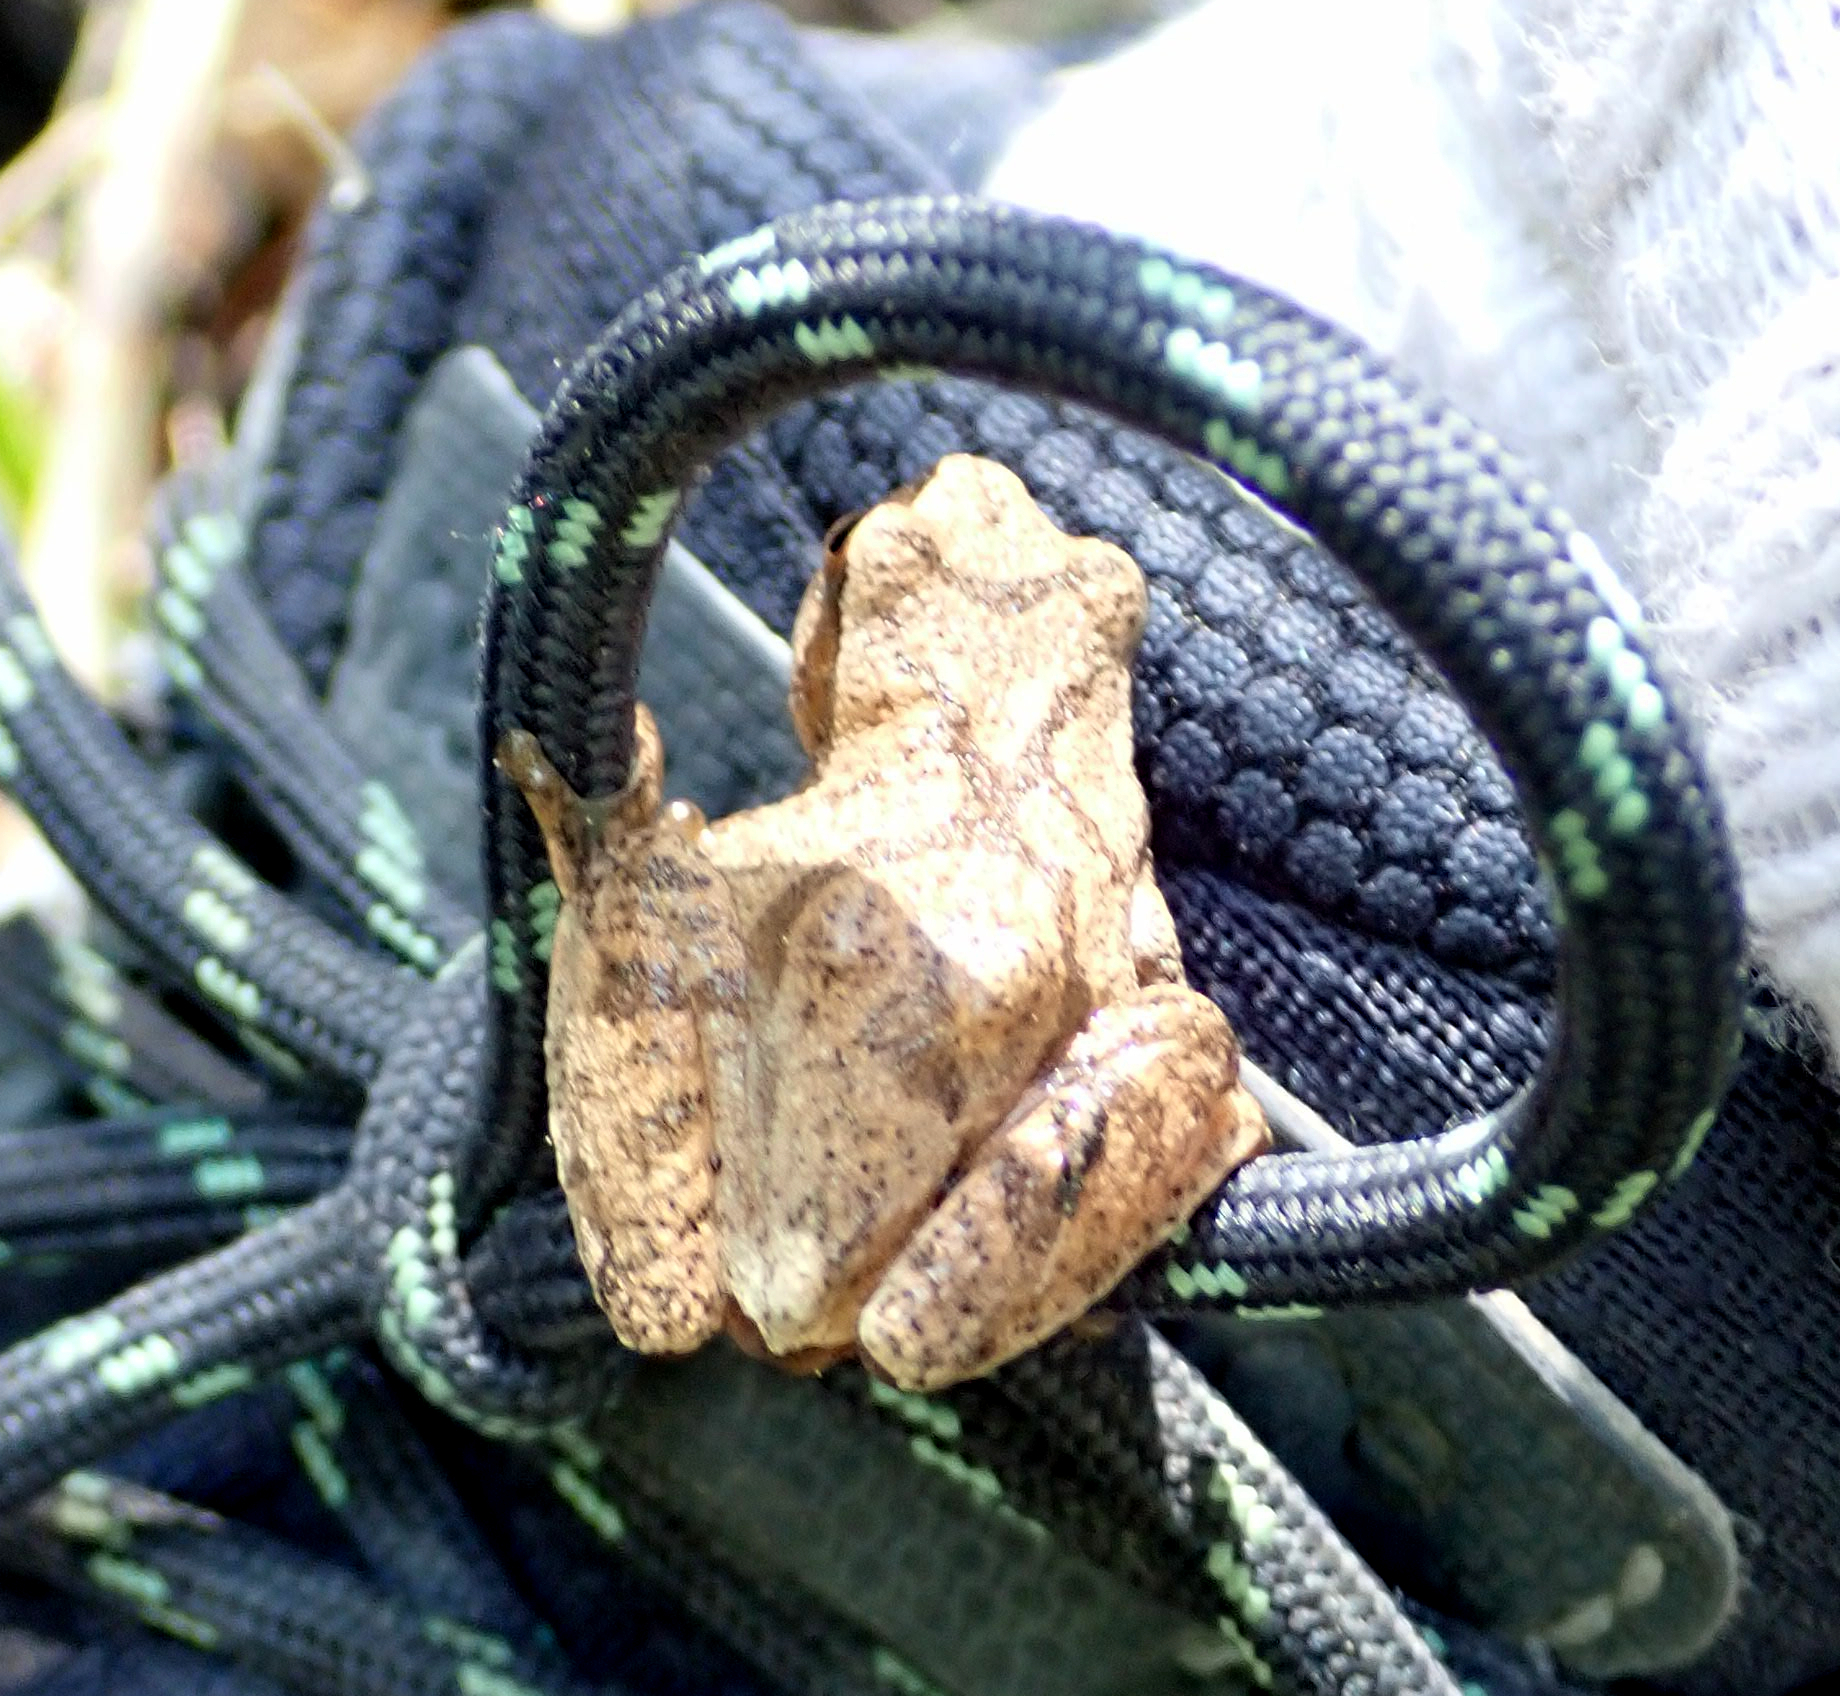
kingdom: Animalia
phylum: Chordata
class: Amphibia
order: Anura
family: Hylidae
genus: Pseudacris
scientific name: Pseudacris crucifer
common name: Spring peeper
